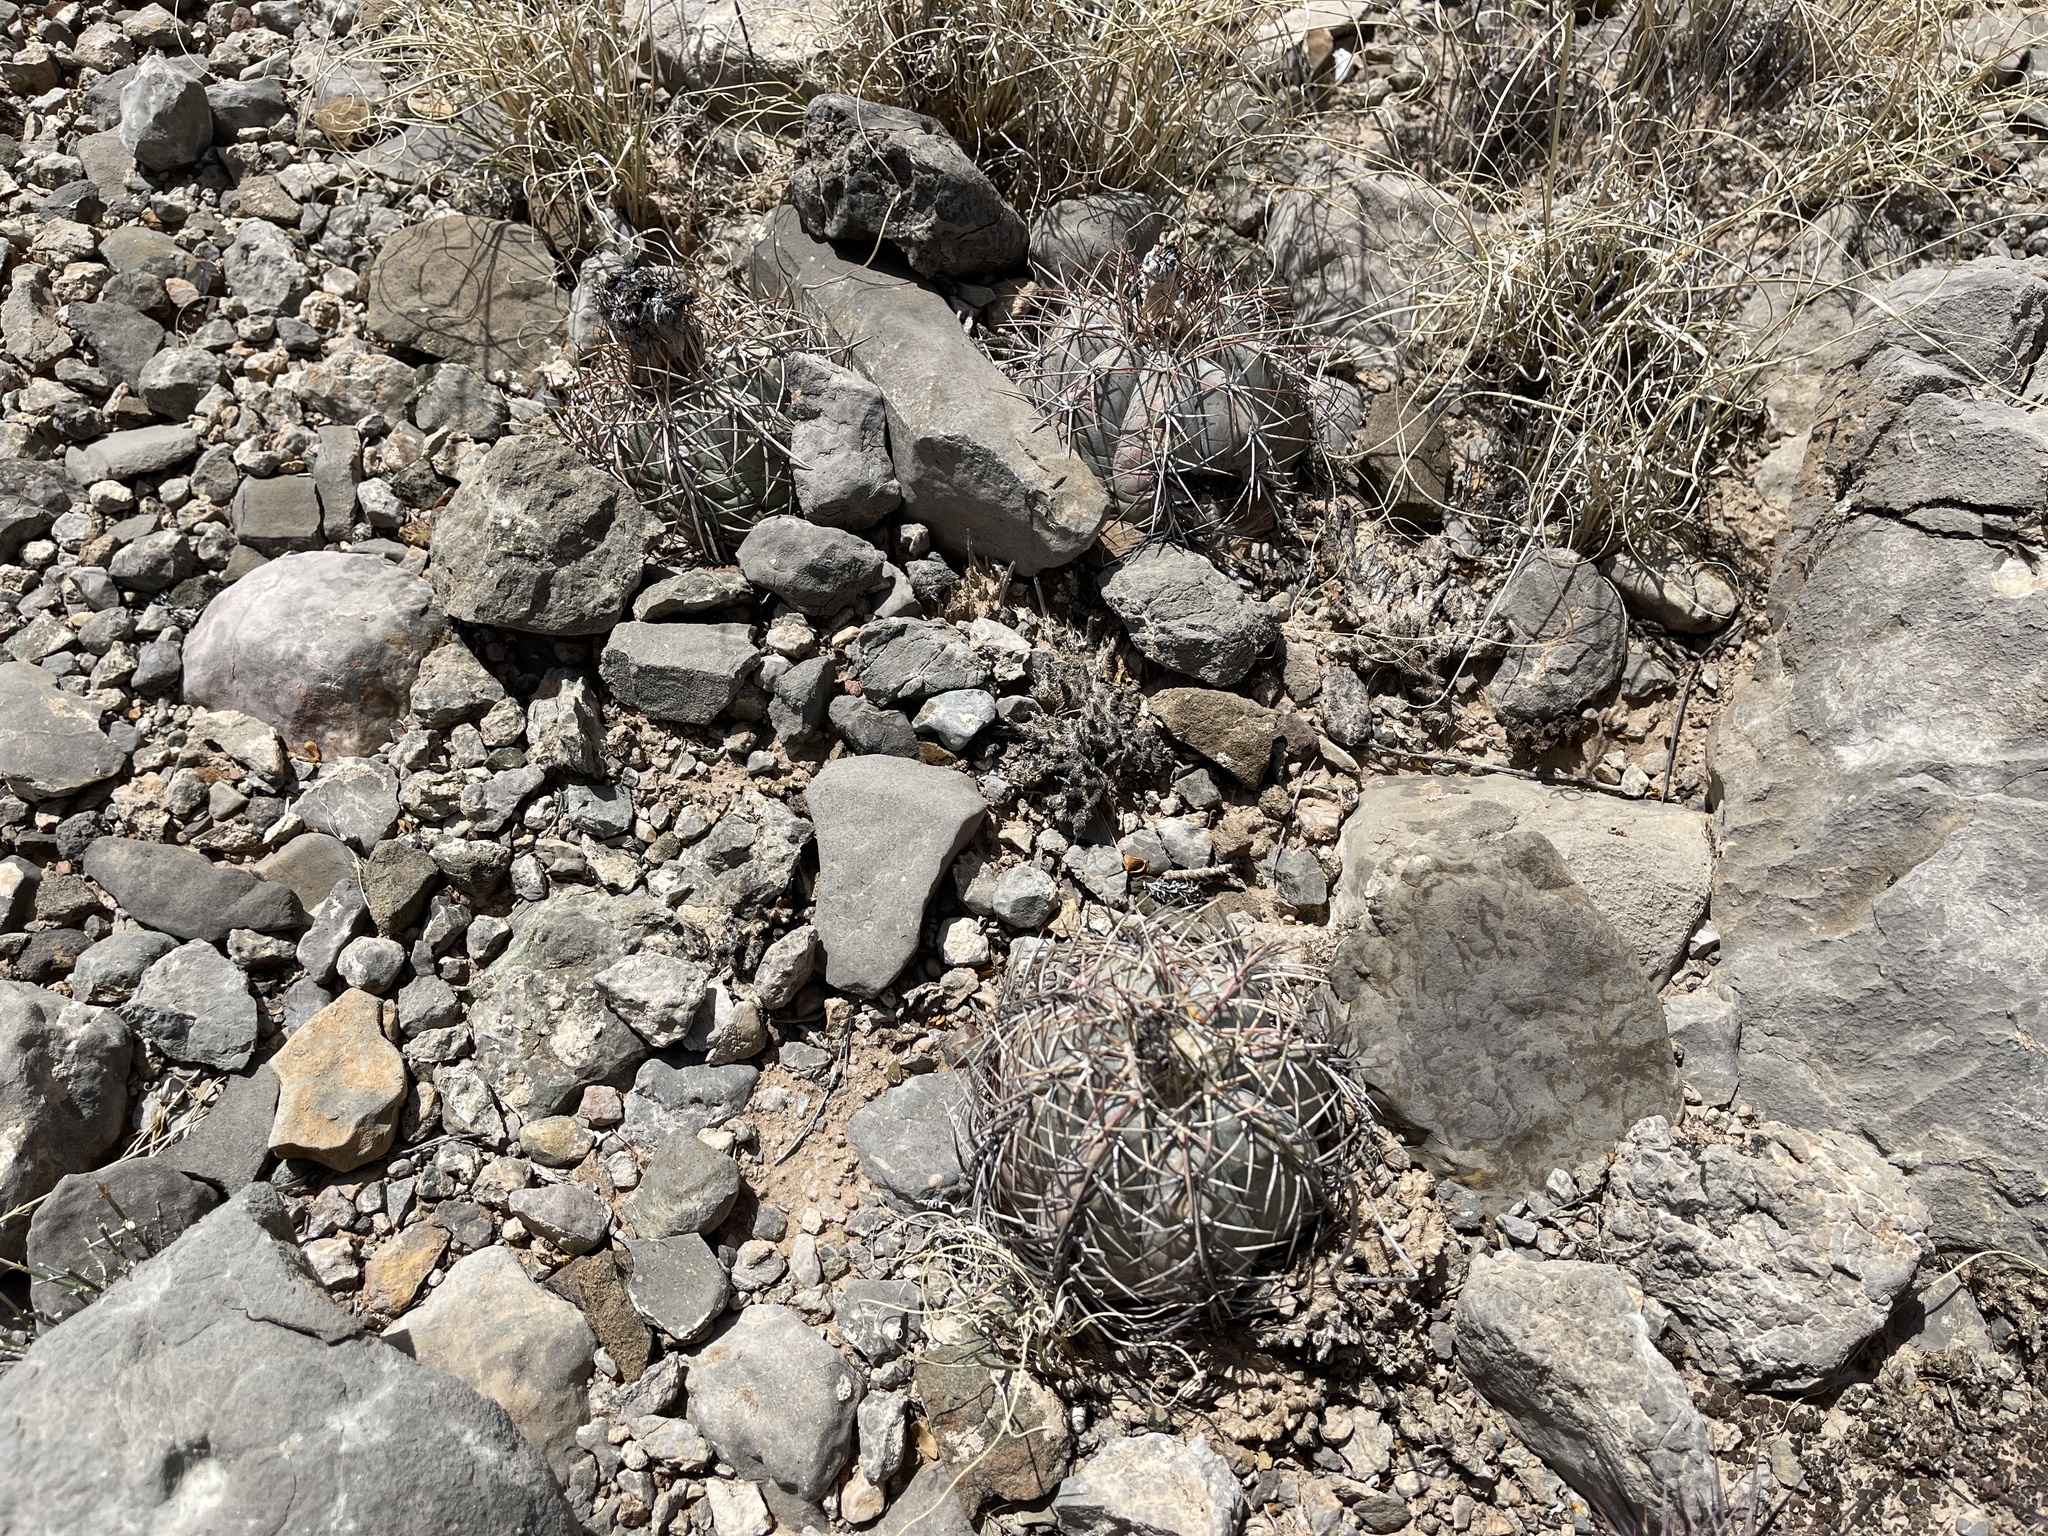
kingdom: Plantae
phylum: Tracheophyta
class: Magnoliopsida
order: Caryophyllales
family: Cactaceae
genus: Echinocactus
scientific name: Echinocactus horizonthalonius
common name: Devilshead
